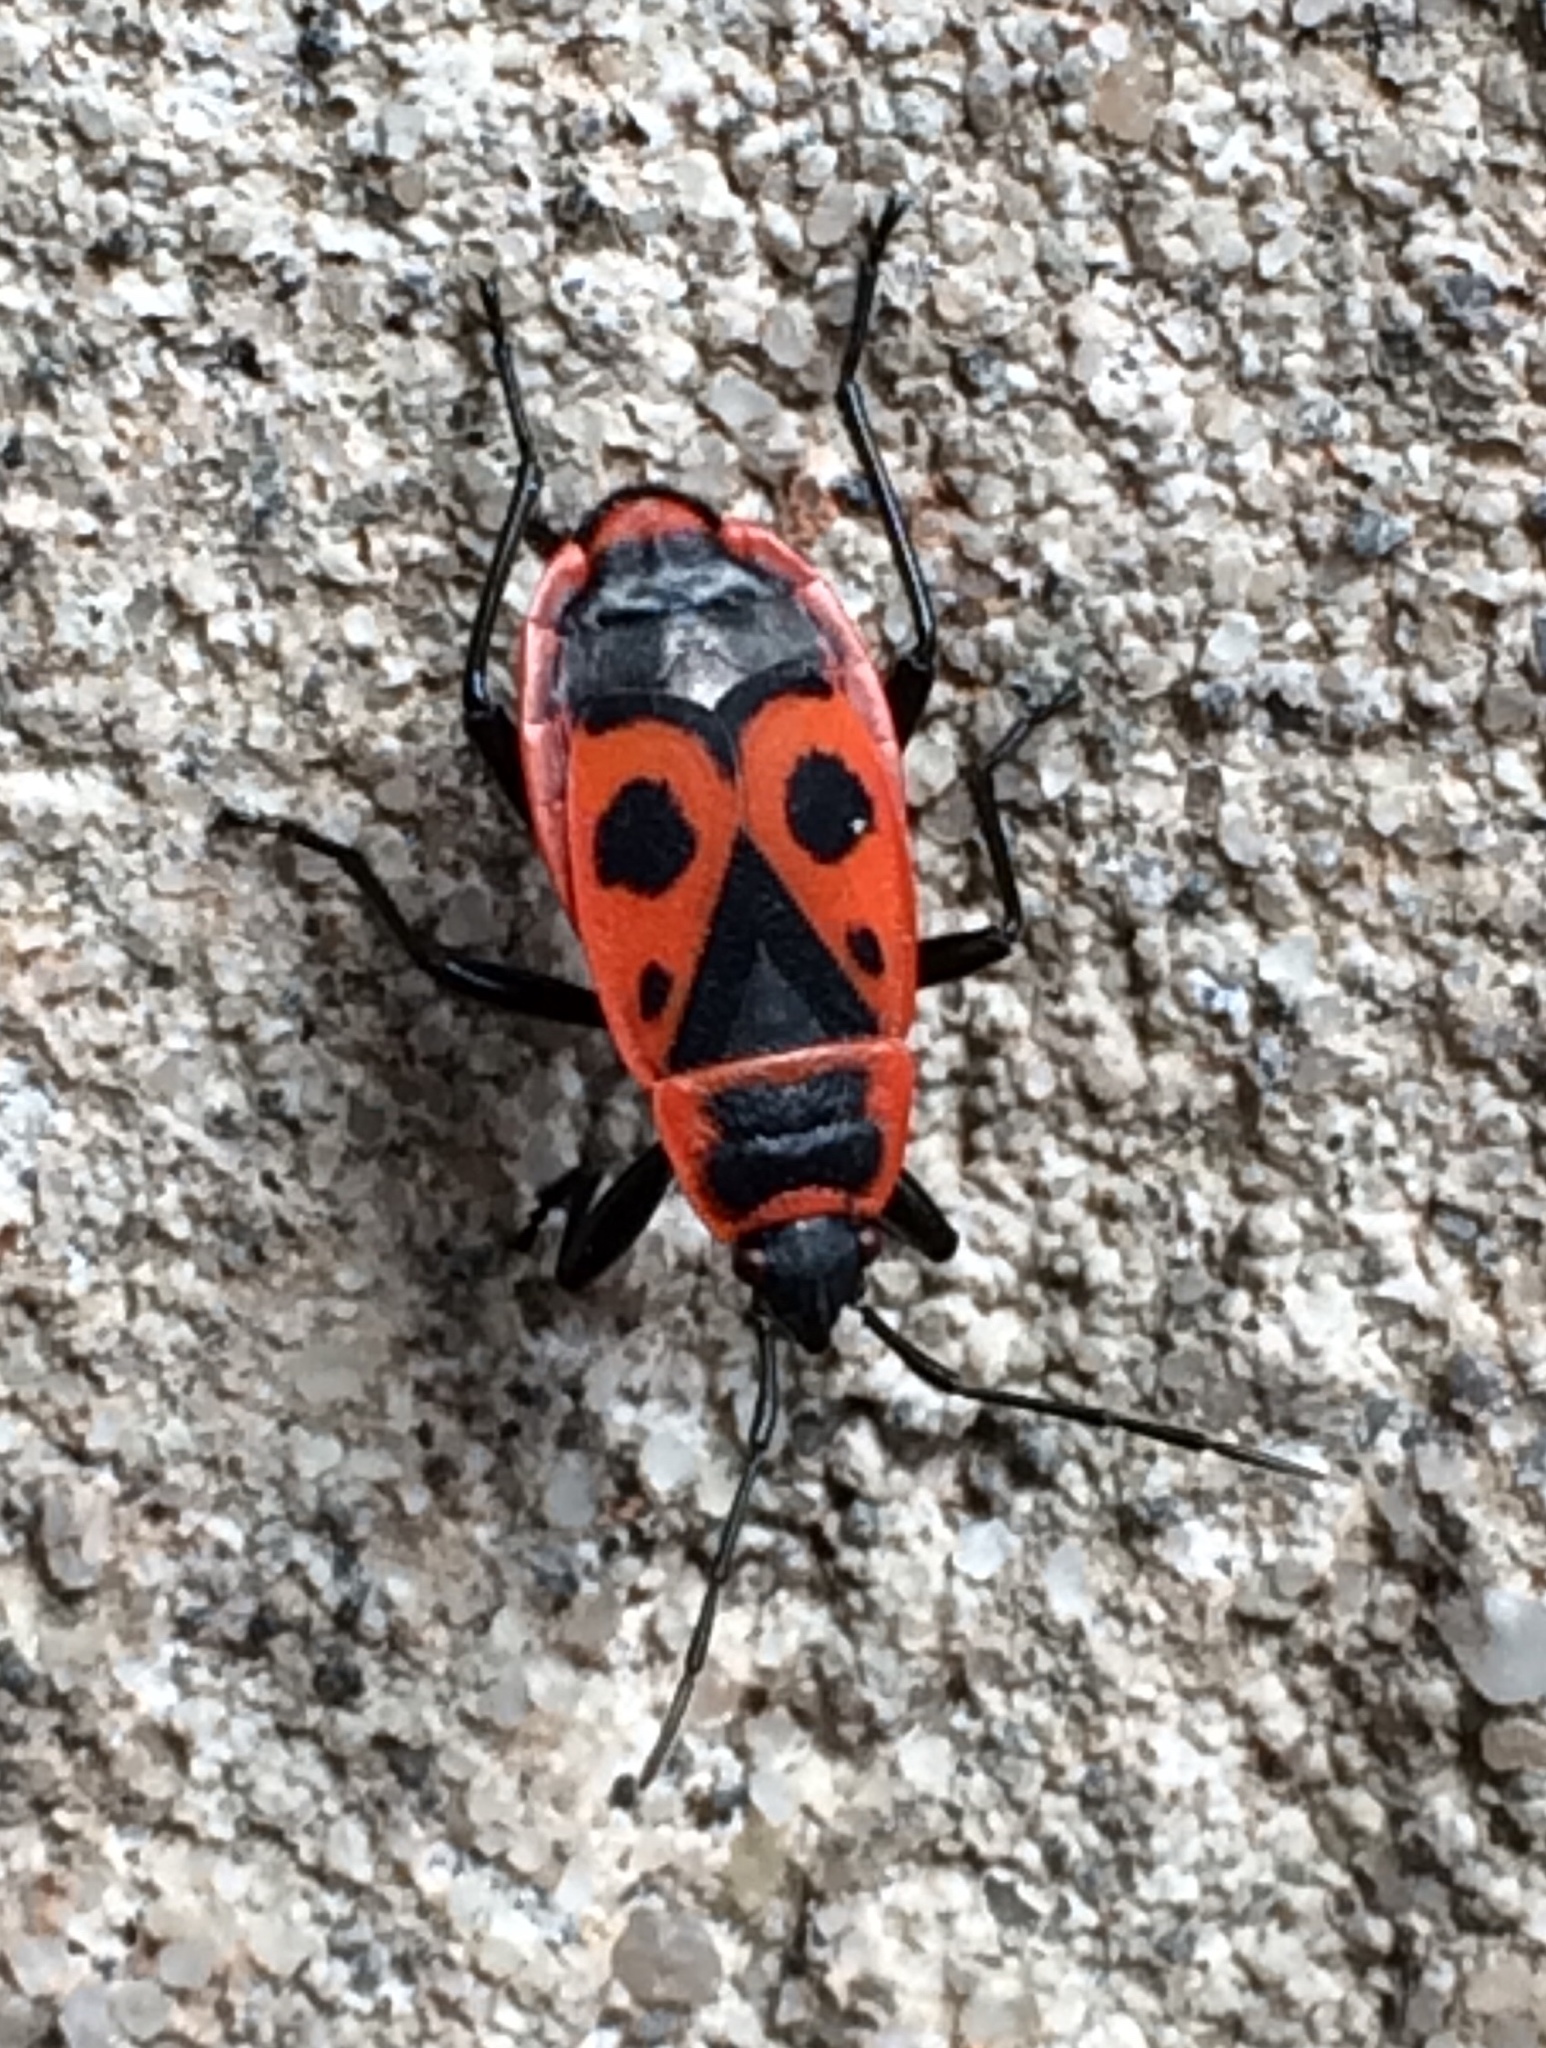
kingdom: Animalia
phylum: Arthropoda
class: Insecta
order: Hemiptera
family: Pyrrhocoridae
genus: Pyrrhocoris
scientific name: Pyrrhocoris apterus
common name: Firebug
